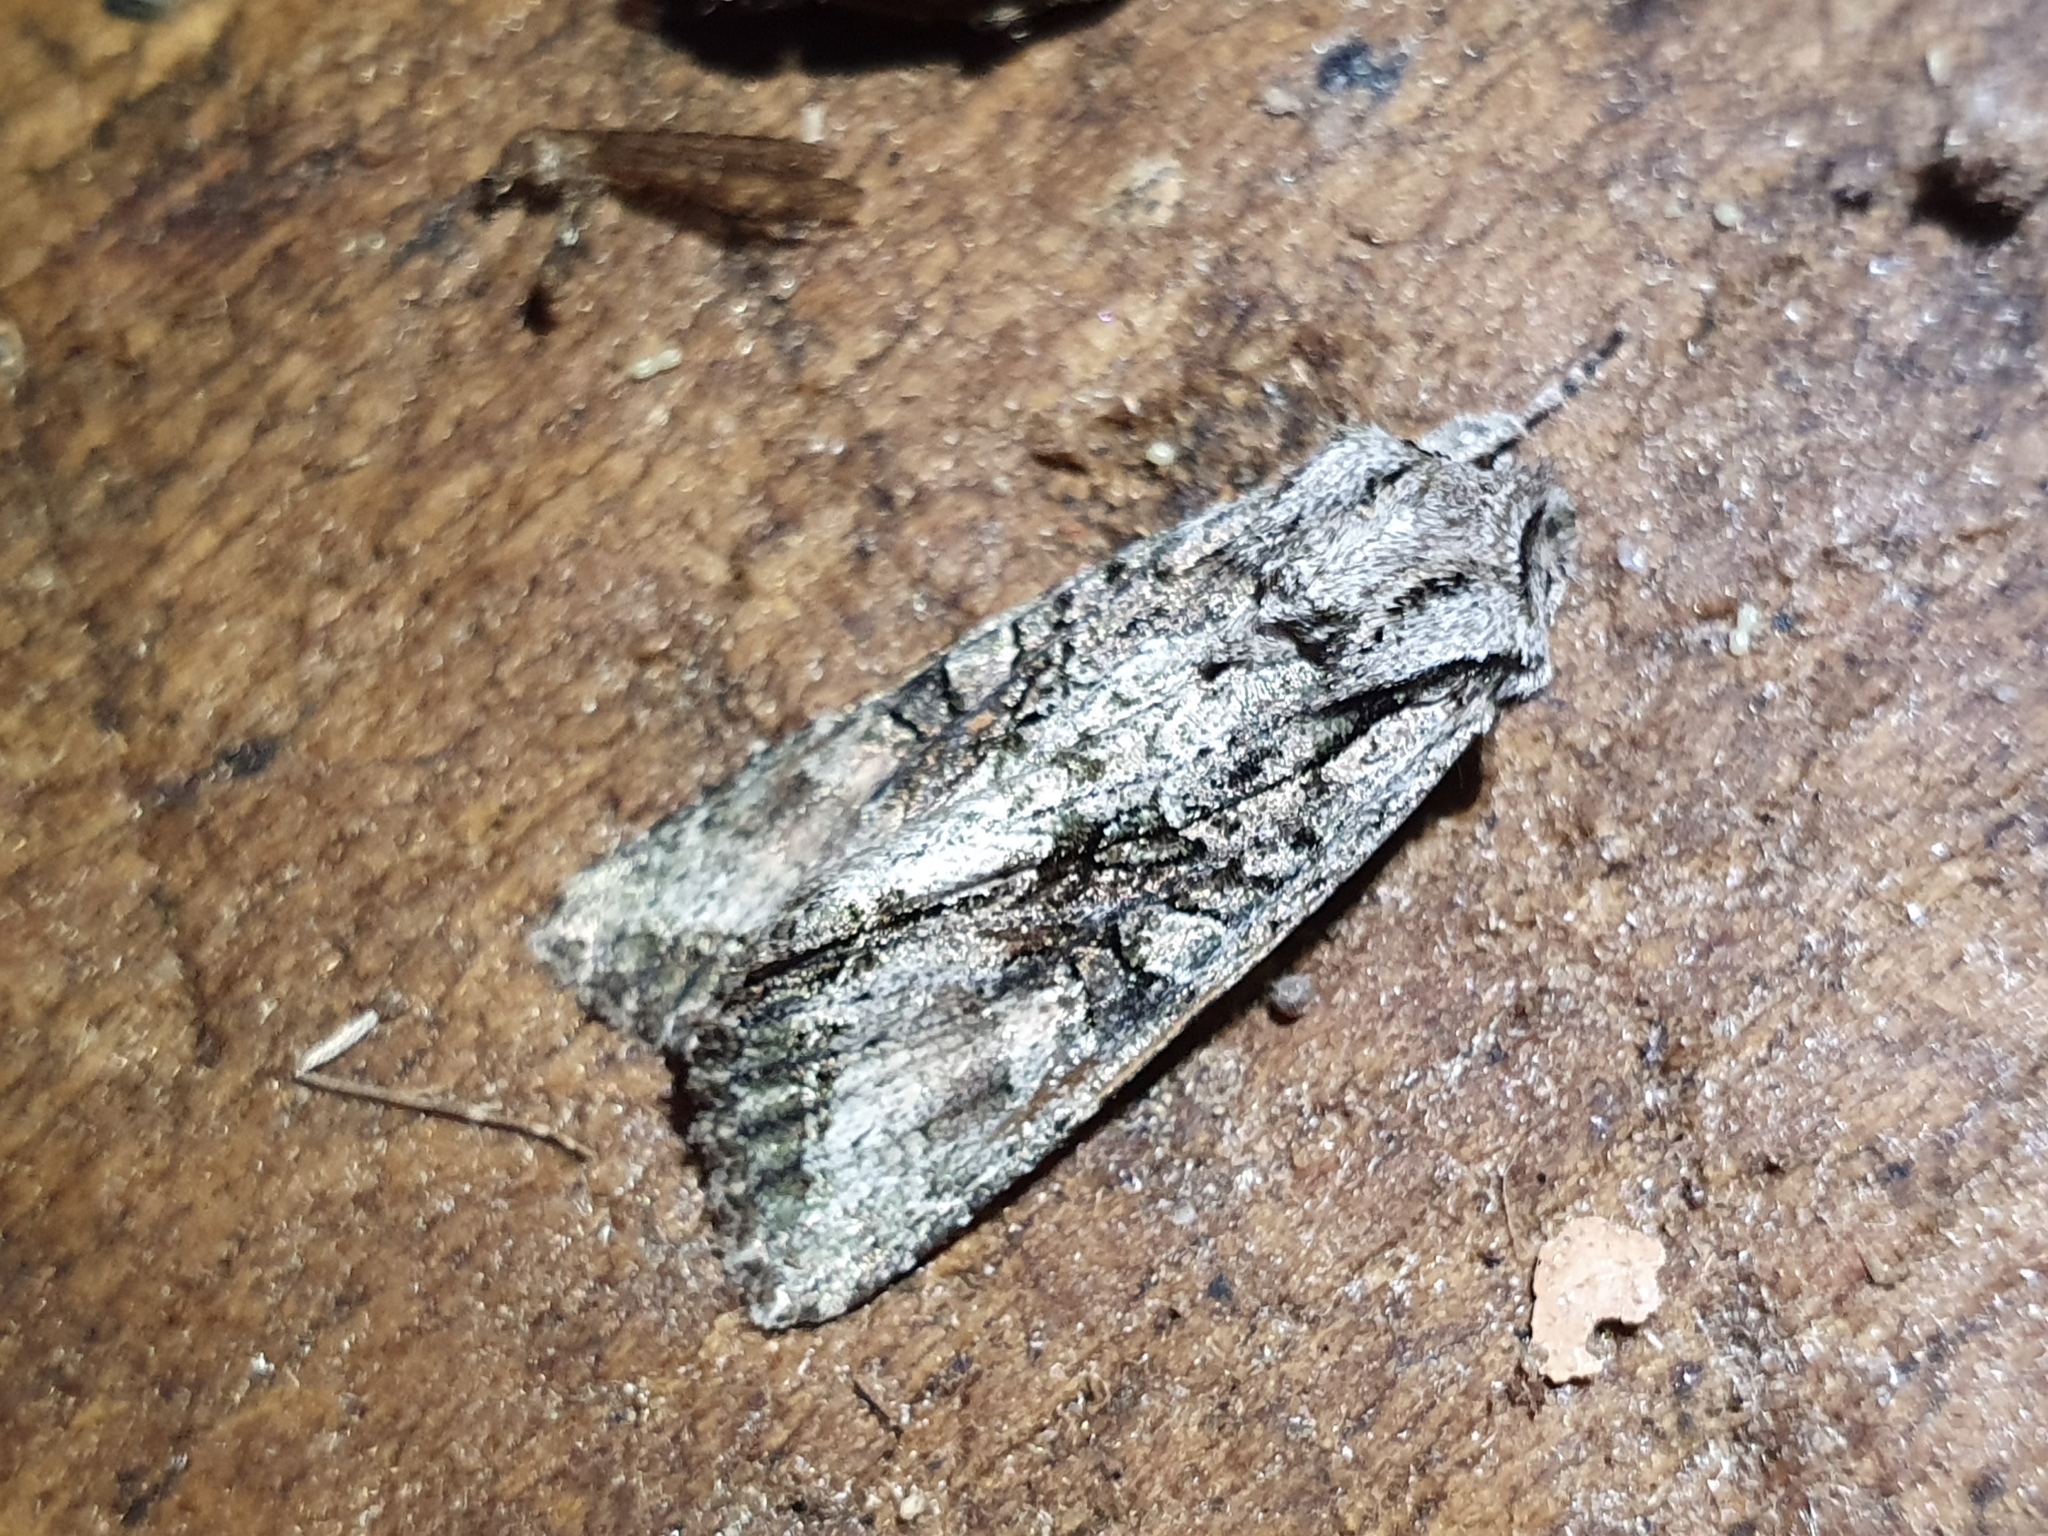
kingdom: Animalia
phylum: Arthropoda
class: Insecta
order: Lepidoptera
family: Noctuidae
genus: Ichneutica
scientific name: Ichneutica mutans
